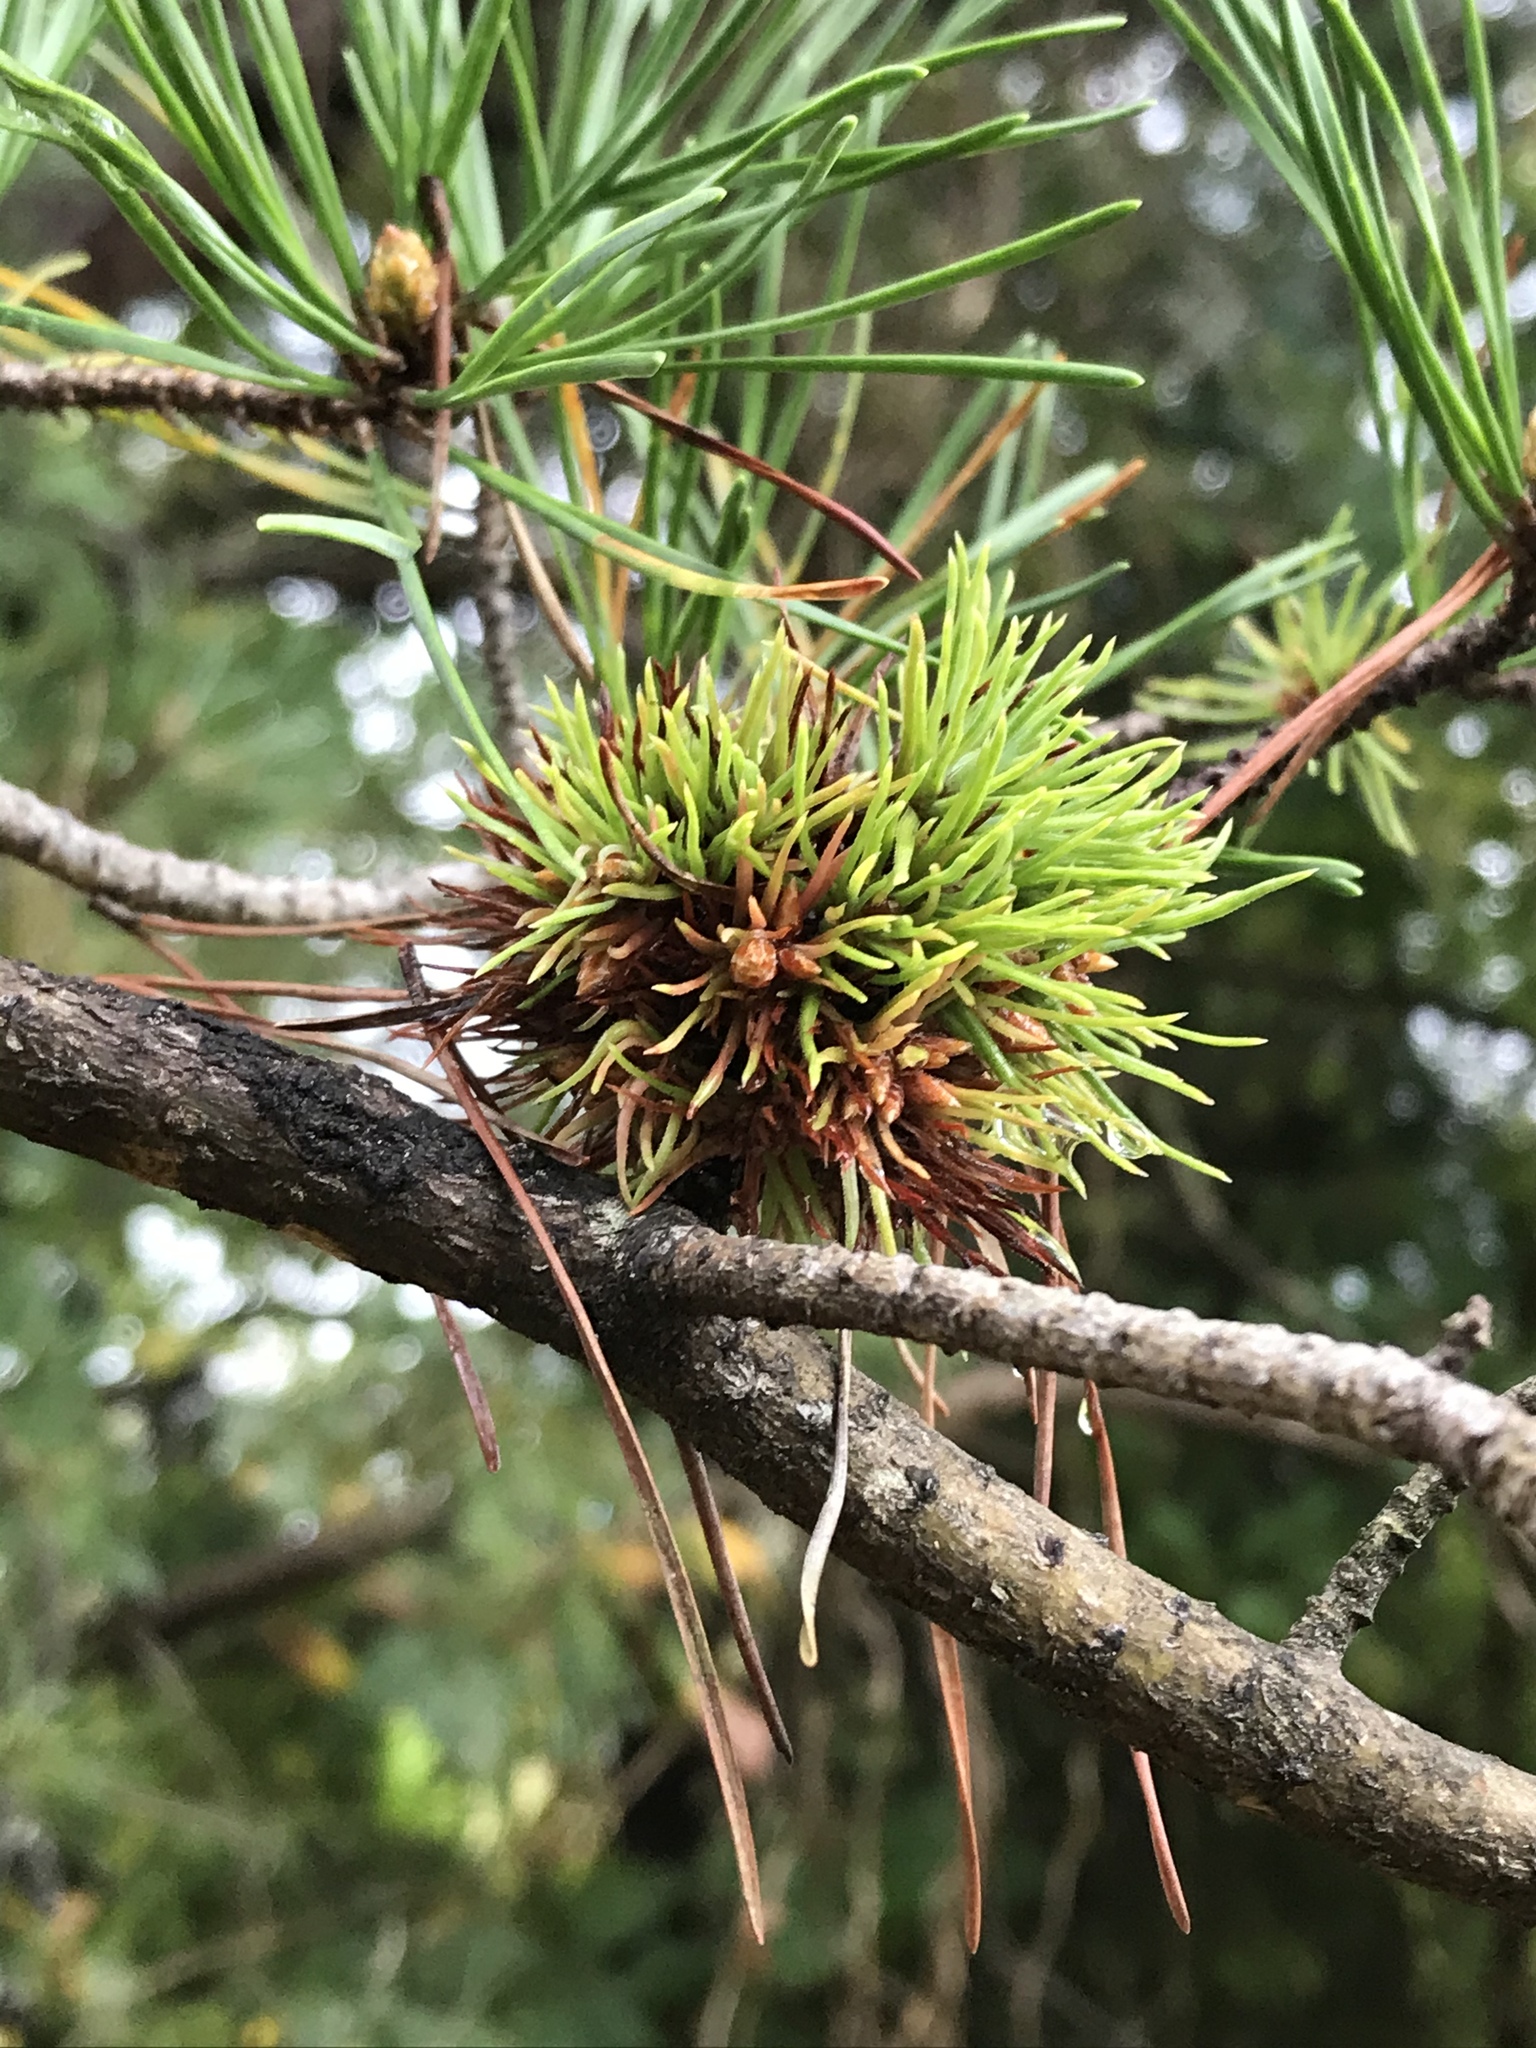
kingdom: Plantae
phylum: Tracheophyta
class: Pinopsida
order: Pinales
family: Pinaceae
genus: Pinus
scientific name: Pinus virginiana
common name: Scrub pine
